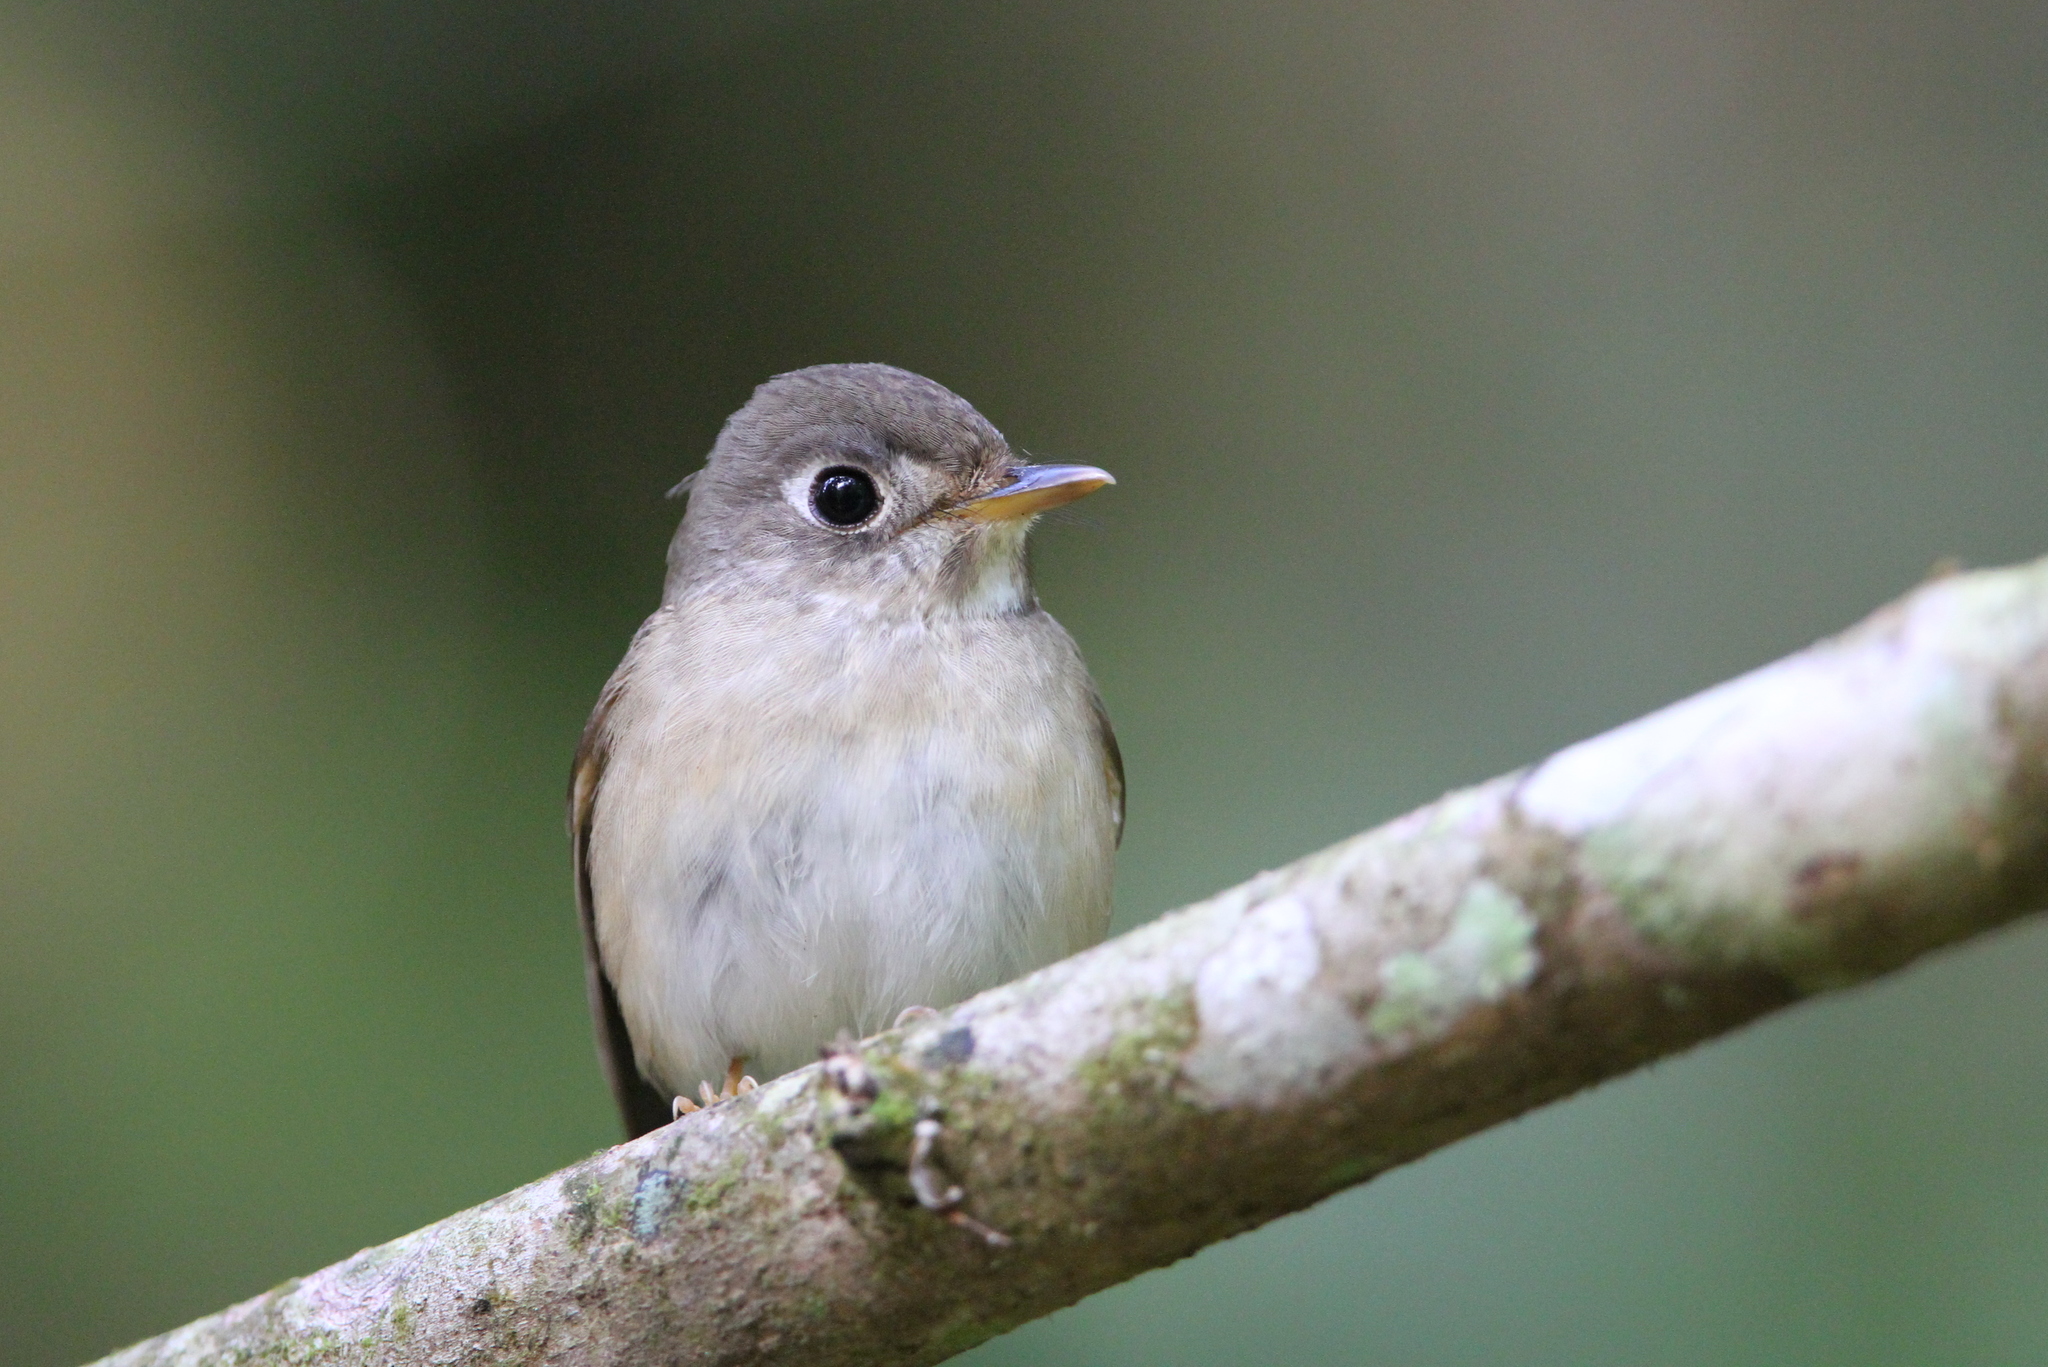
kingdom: Animalia
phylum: Chordata
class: Aves
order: Passeriformes
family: Muscicapidae
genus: Muscicapa
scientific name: Muscicapa muttui
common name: Brown-breasted flycatcher
